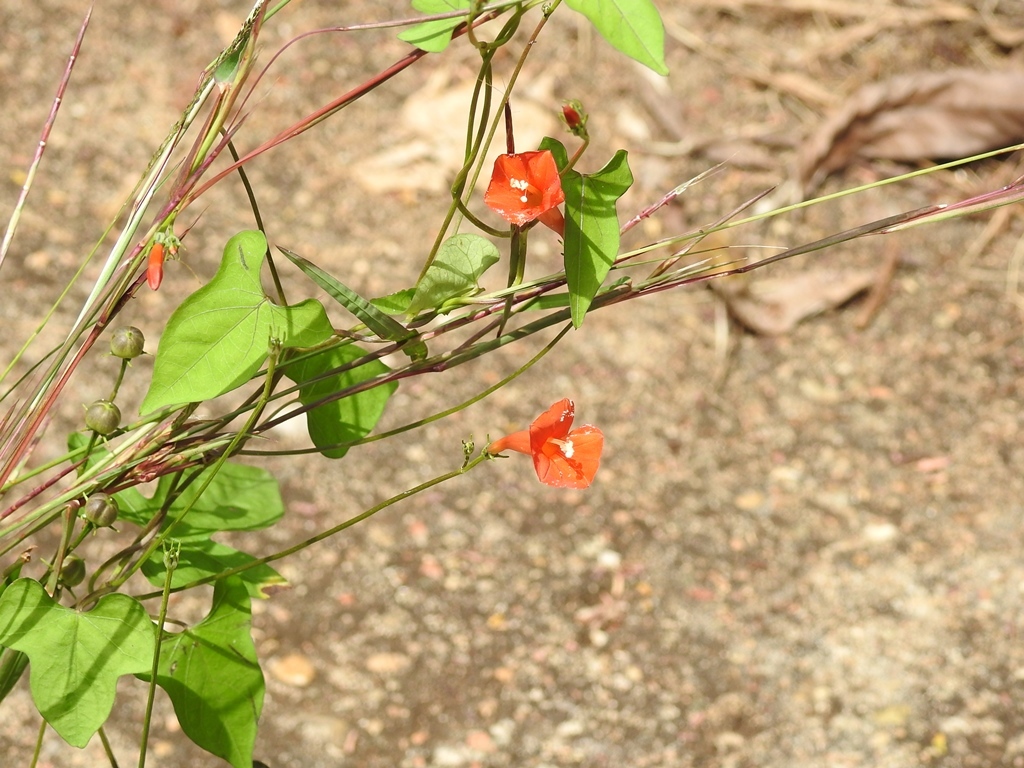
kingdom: Plantae
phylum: Tracheophyta
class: Magnoliopsida
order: Solanales
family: Convolvulaceae
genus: Ipomoea
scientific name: Ipomoea hederifolia
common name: Ivy-leaf morning-glory
